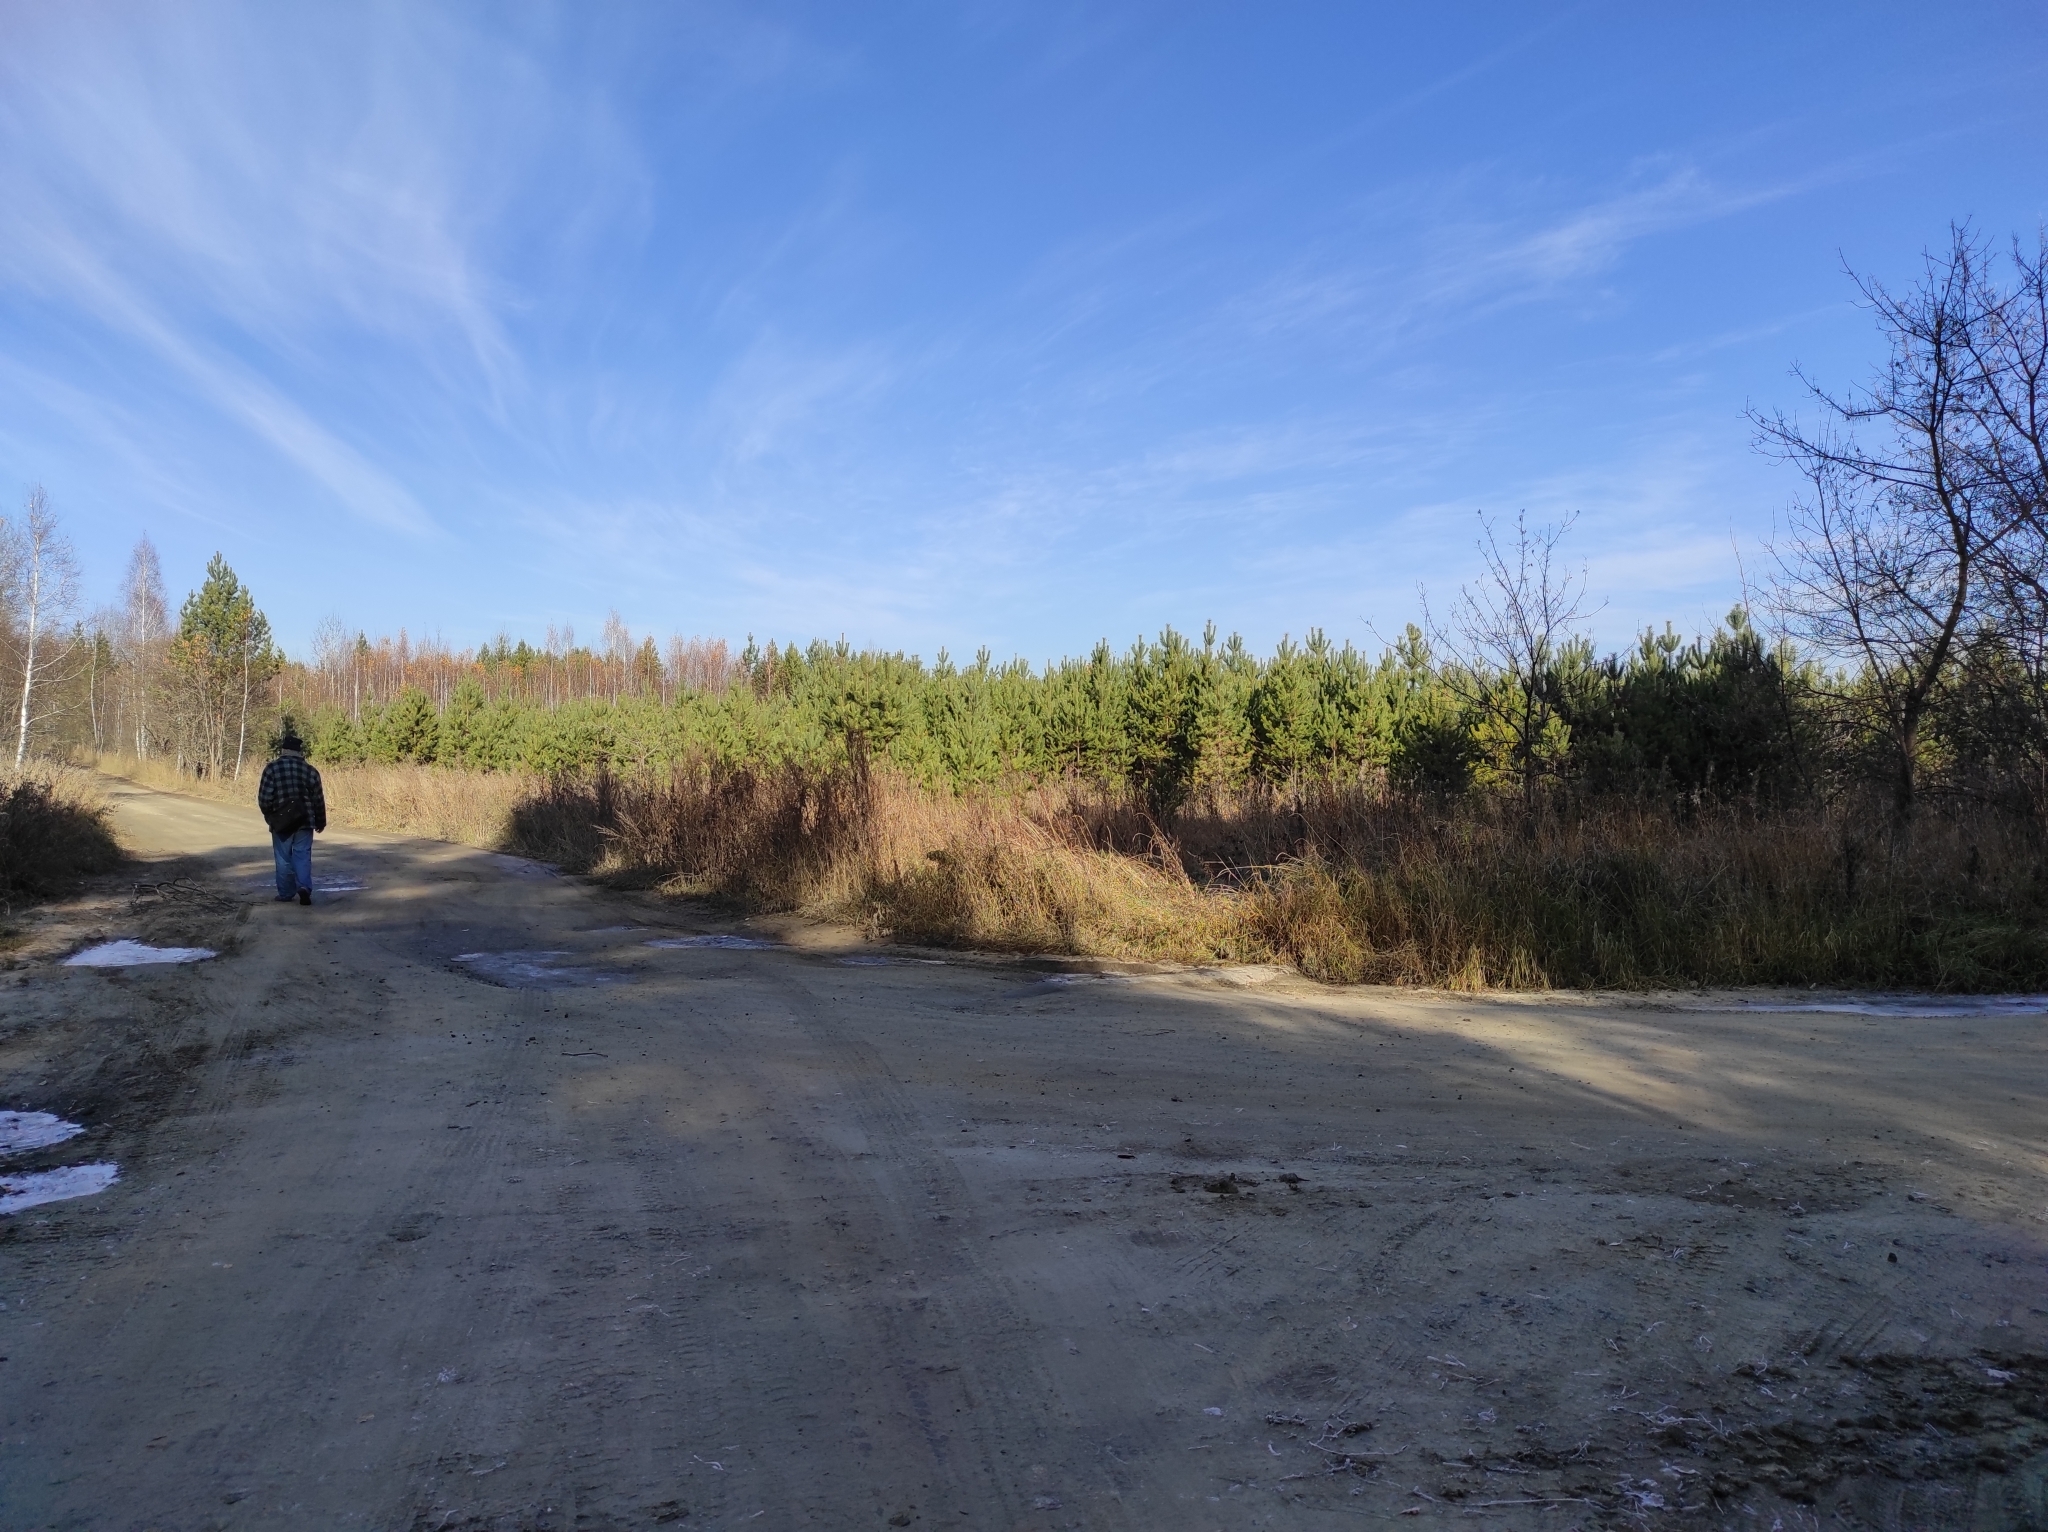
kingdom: Plantae
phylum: Tracheophyta
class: Pinopsida
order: Pinales
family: Pinaceae
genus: Pinus
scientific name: Pinus sylvestris
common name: Scots pine
